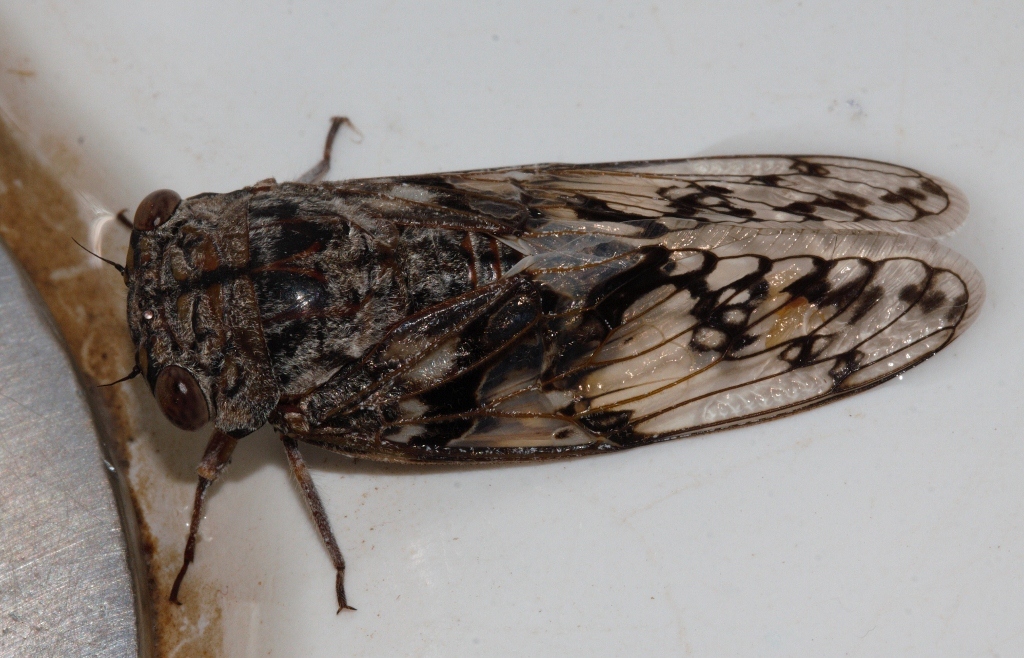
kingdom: Animalia
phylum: Arthropoda
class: Insecta
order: Hemiptera
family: Cicadidae
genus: Severiana
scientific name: Severiana severini
